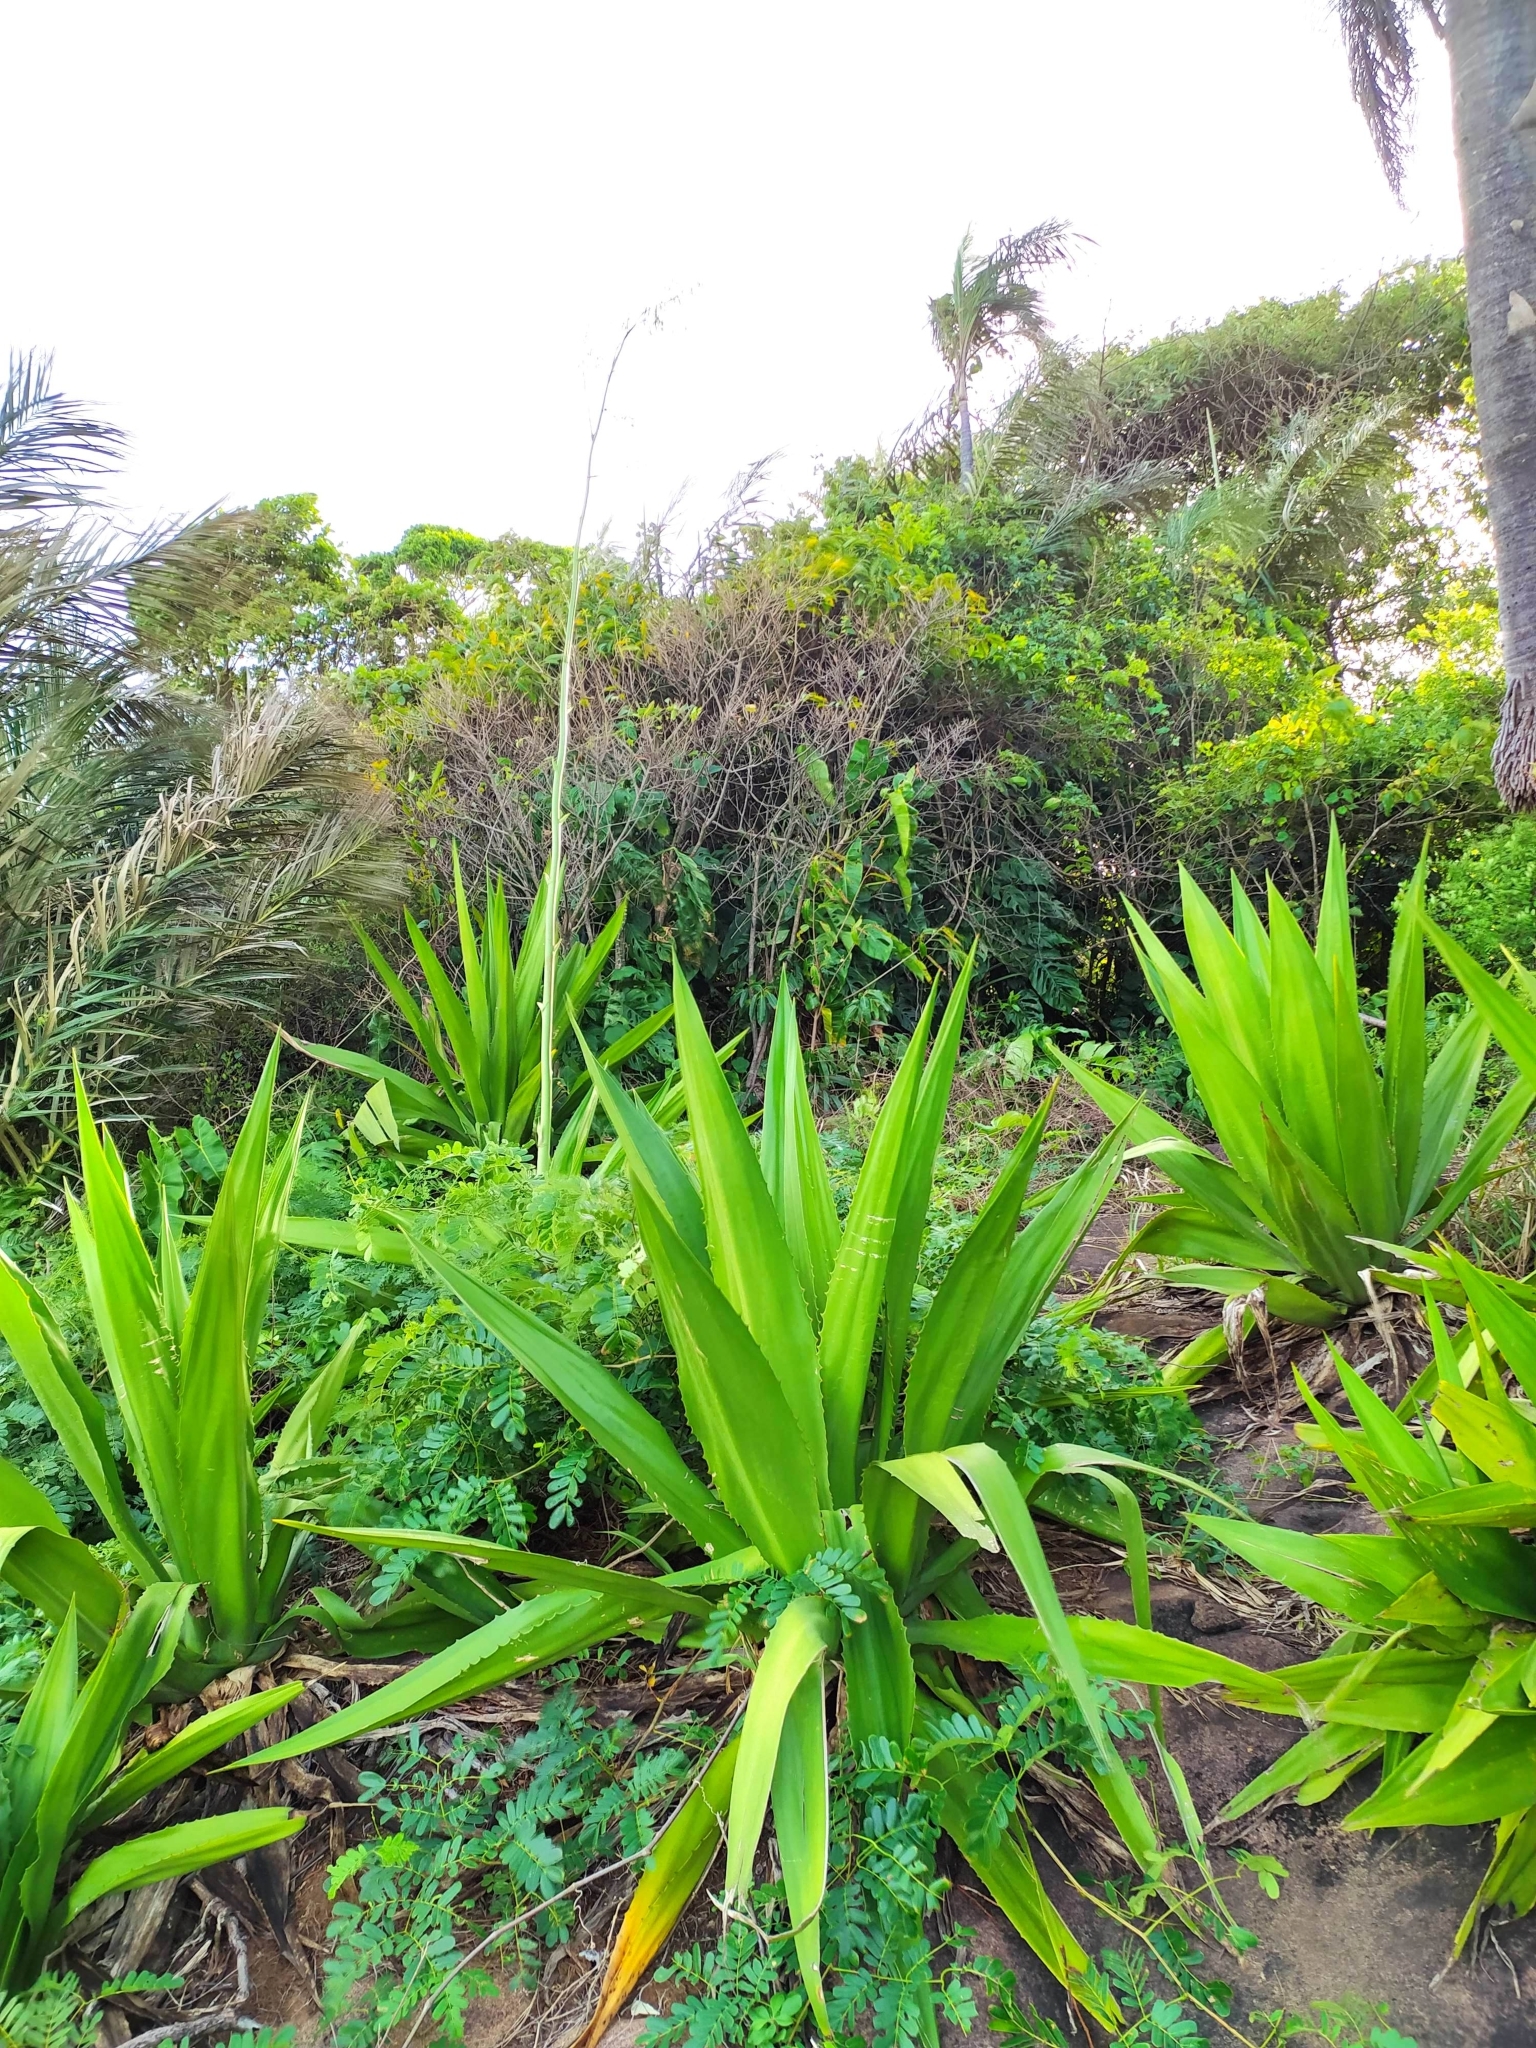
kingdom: Plantae
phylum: Tracheophyta
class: Liliopsida
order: Asparagales
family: Asparagaceae
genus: Furcraea
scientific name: Furcraea foetida
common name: Mauritius hemp
